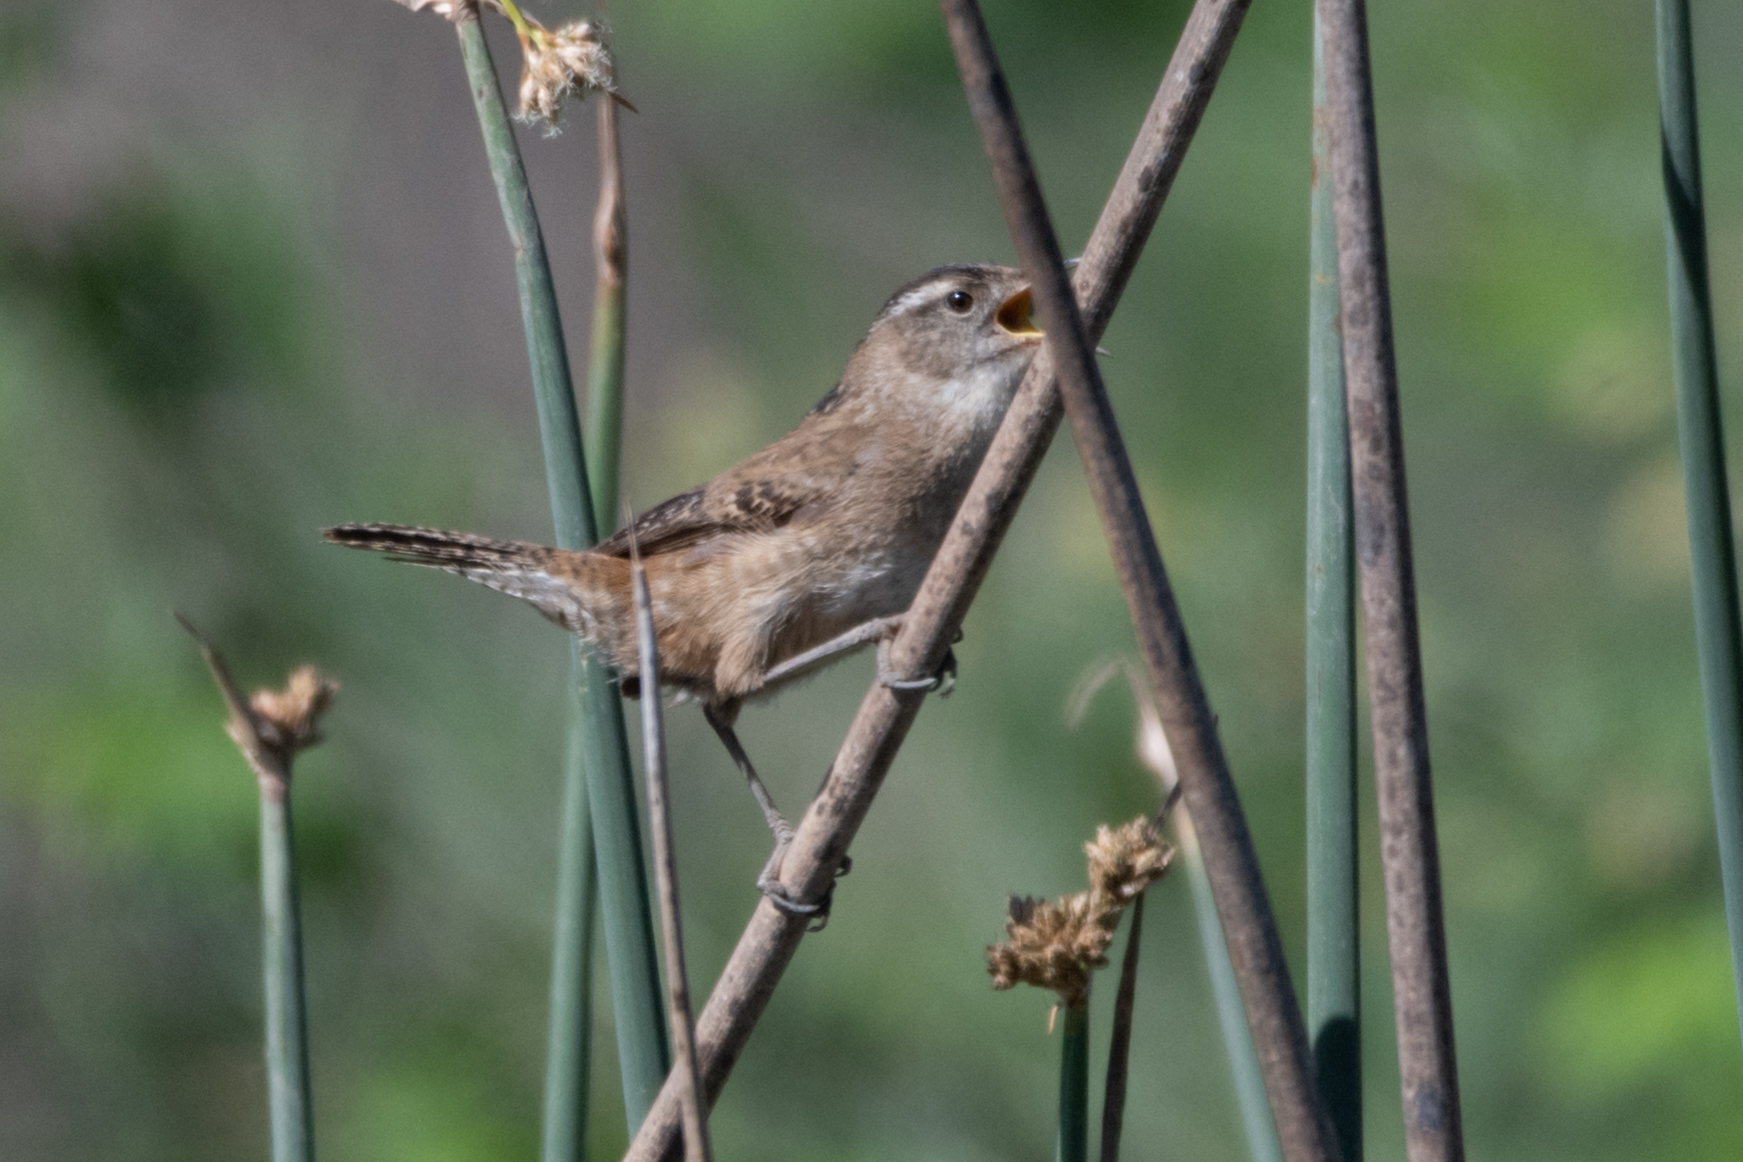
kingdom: Animalia
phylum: Chordata
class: Aves
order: Passeriformes
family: Troglodytidae
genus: Cistothorus
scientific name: Cistothorus palustris
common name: Marsh wren
